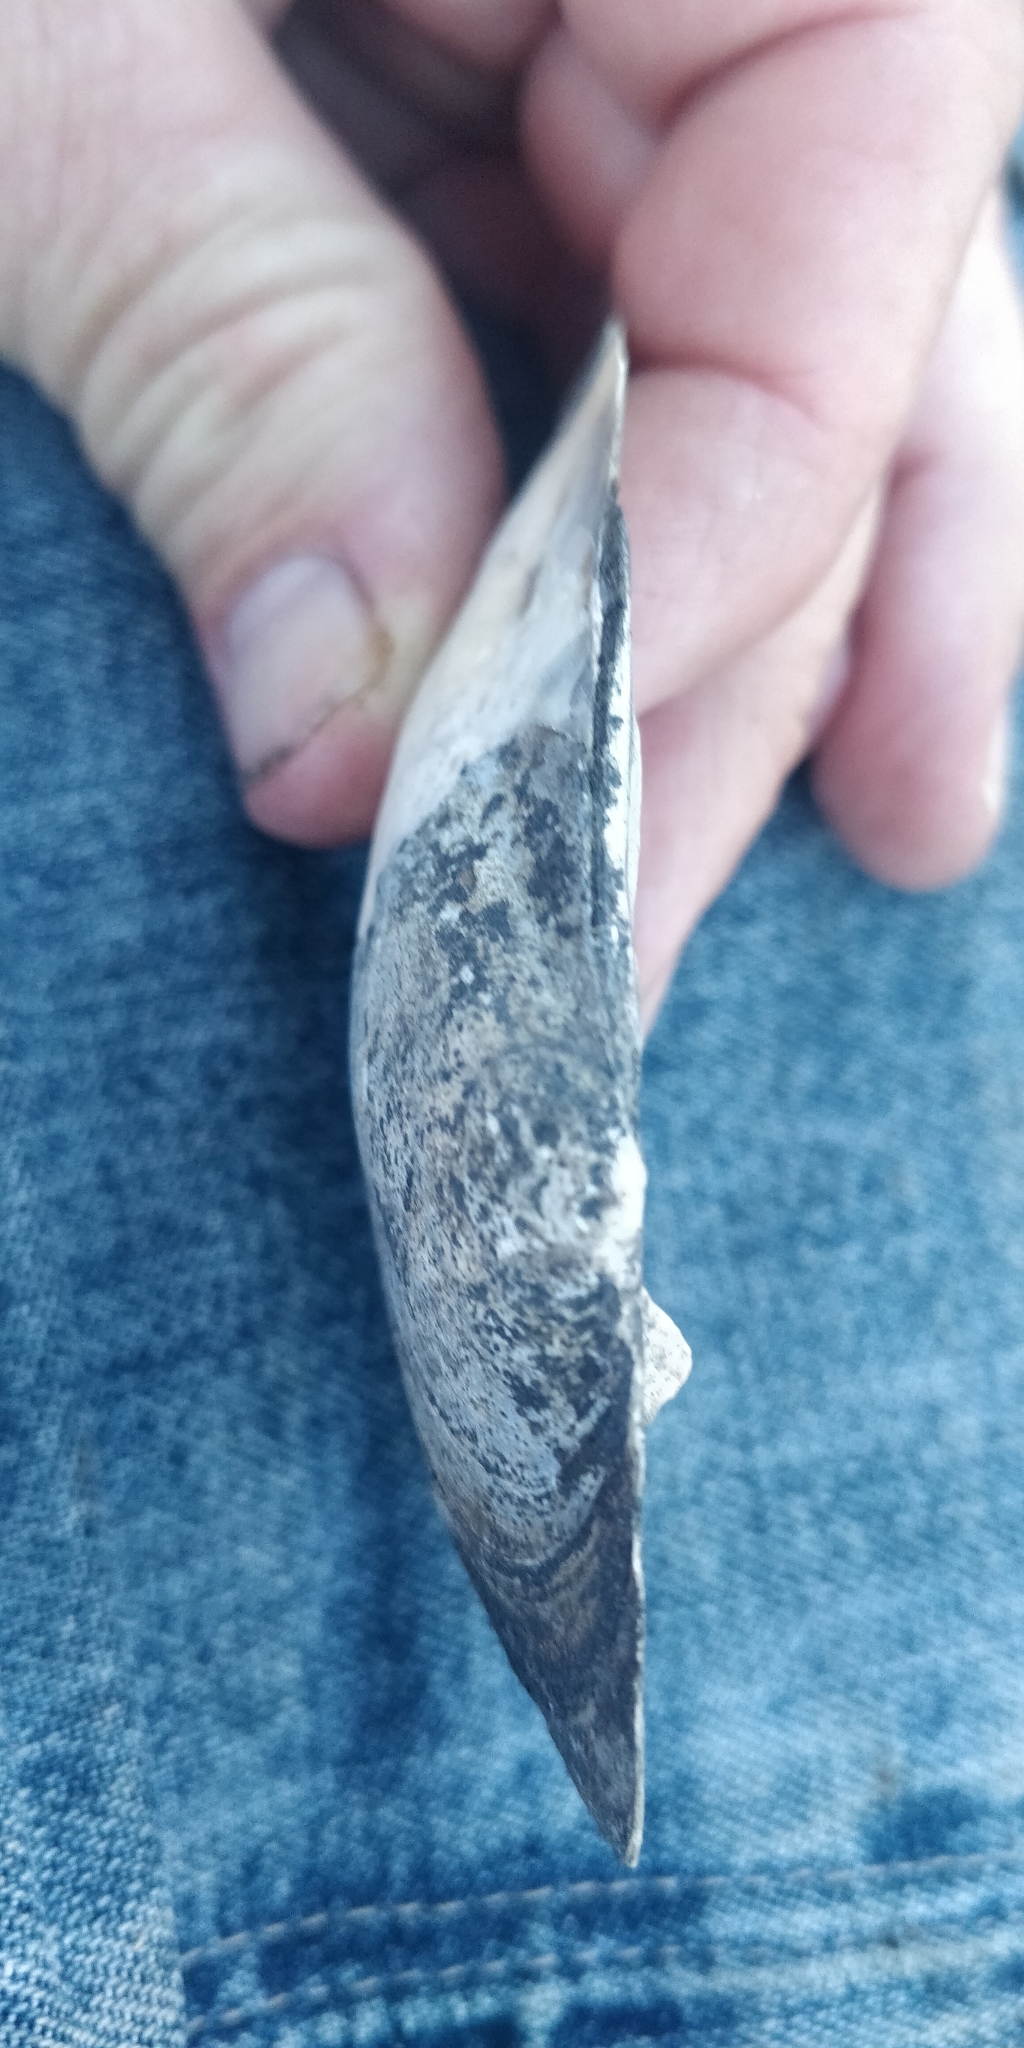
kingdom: Animalia
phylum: Mollusca
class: Bivalvia
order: Unionida
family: Unionidae
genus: Lasmigona
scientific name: Lasmigona complanata
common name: White heelsplitter
